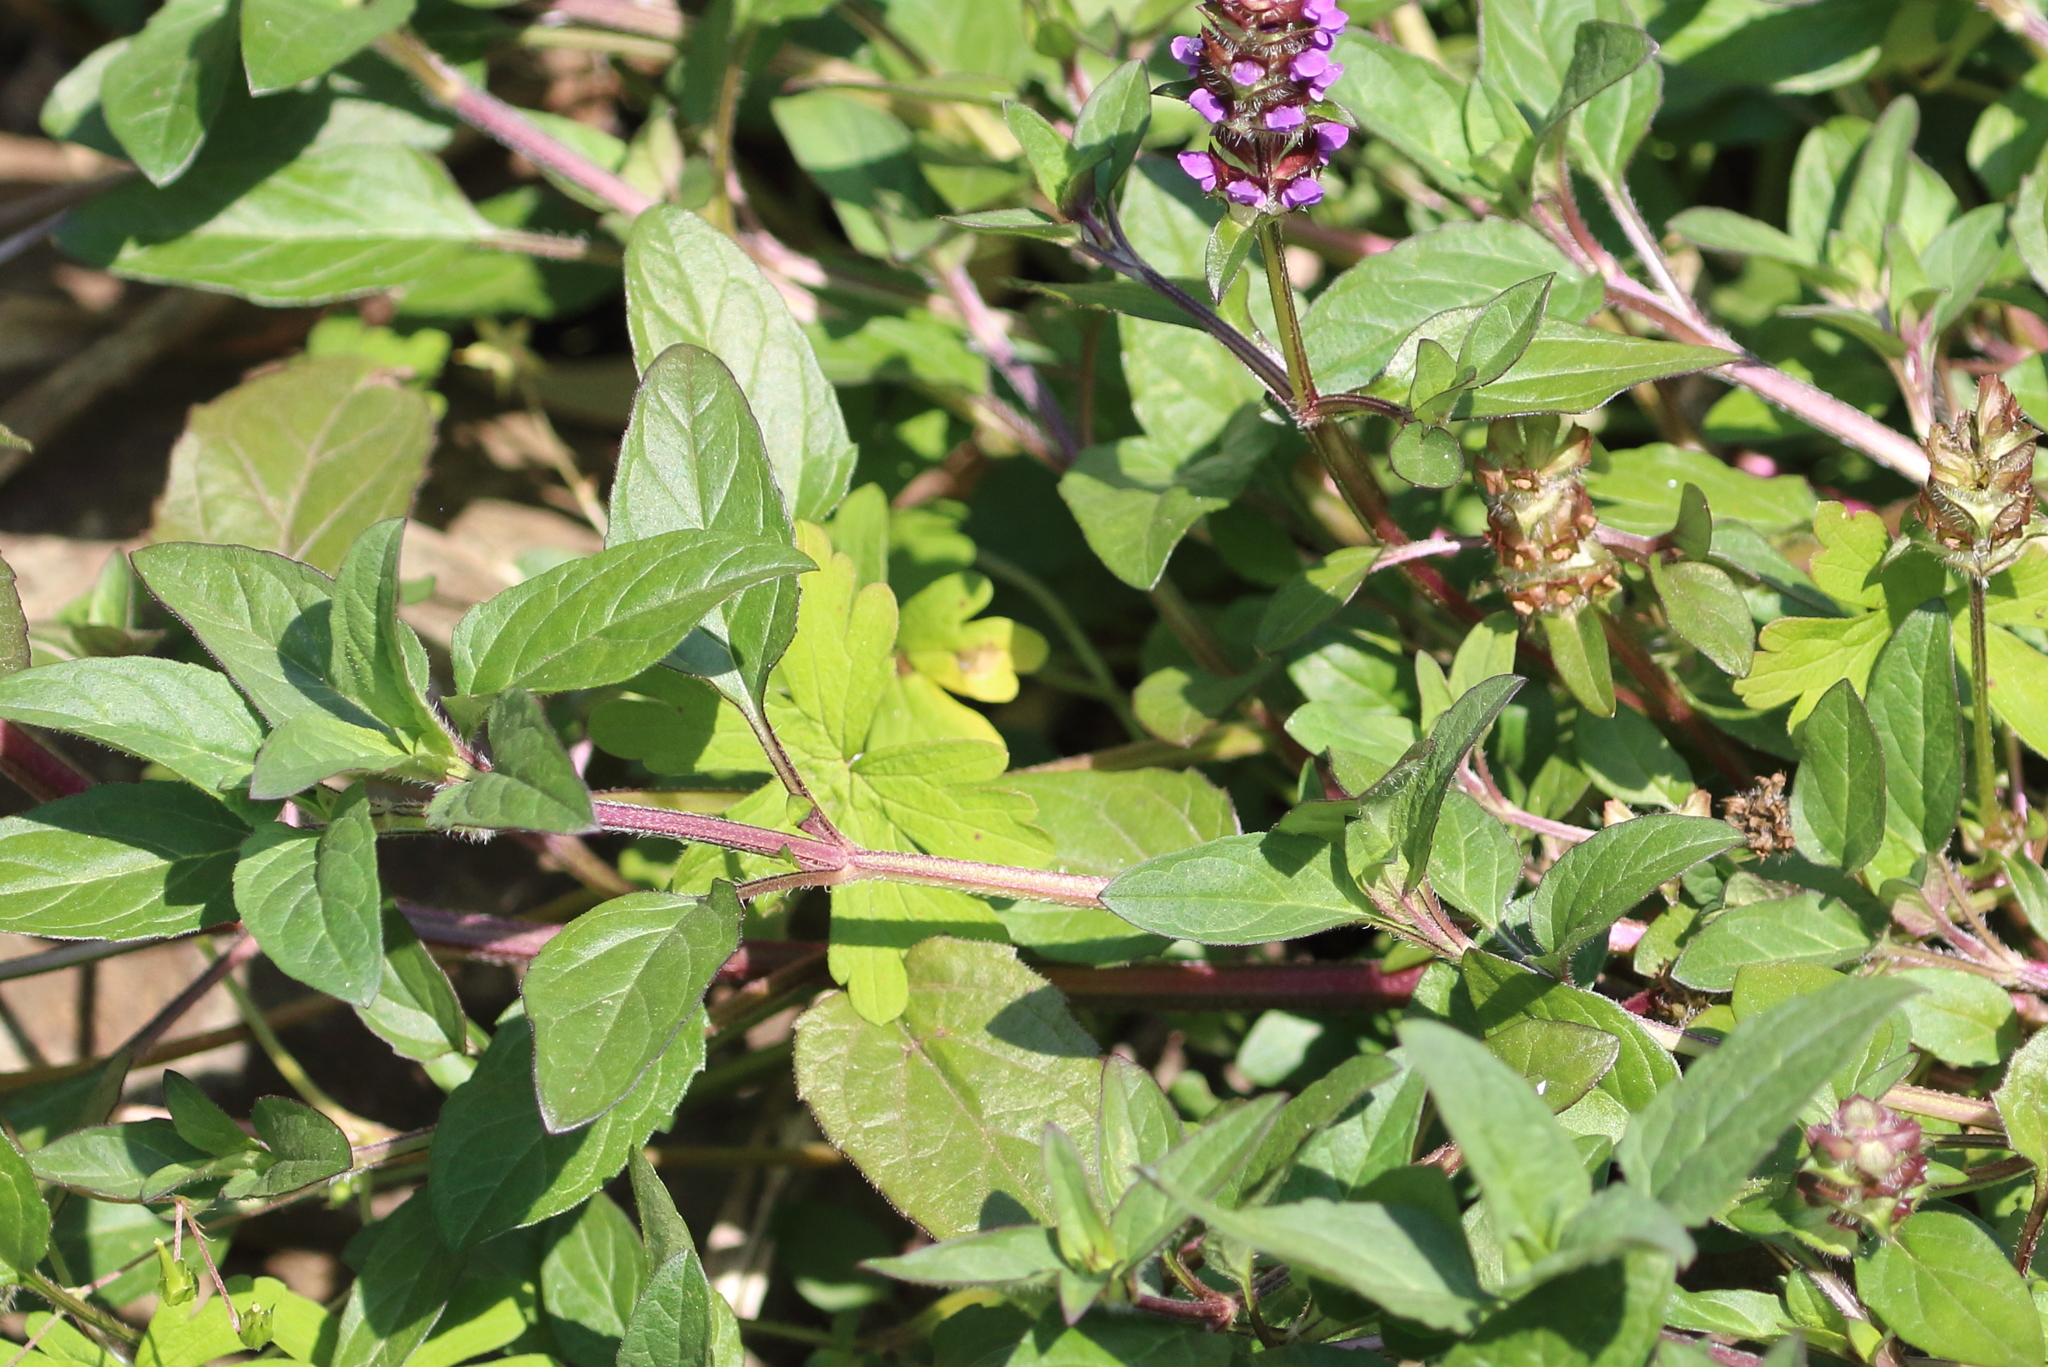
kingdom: Plantae
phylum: Tracheophyta
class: Magnoliopsida
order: Lamiales
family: Lamiaceae
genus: Prunella
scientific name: Prunella vulgaris
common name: Heal-all
